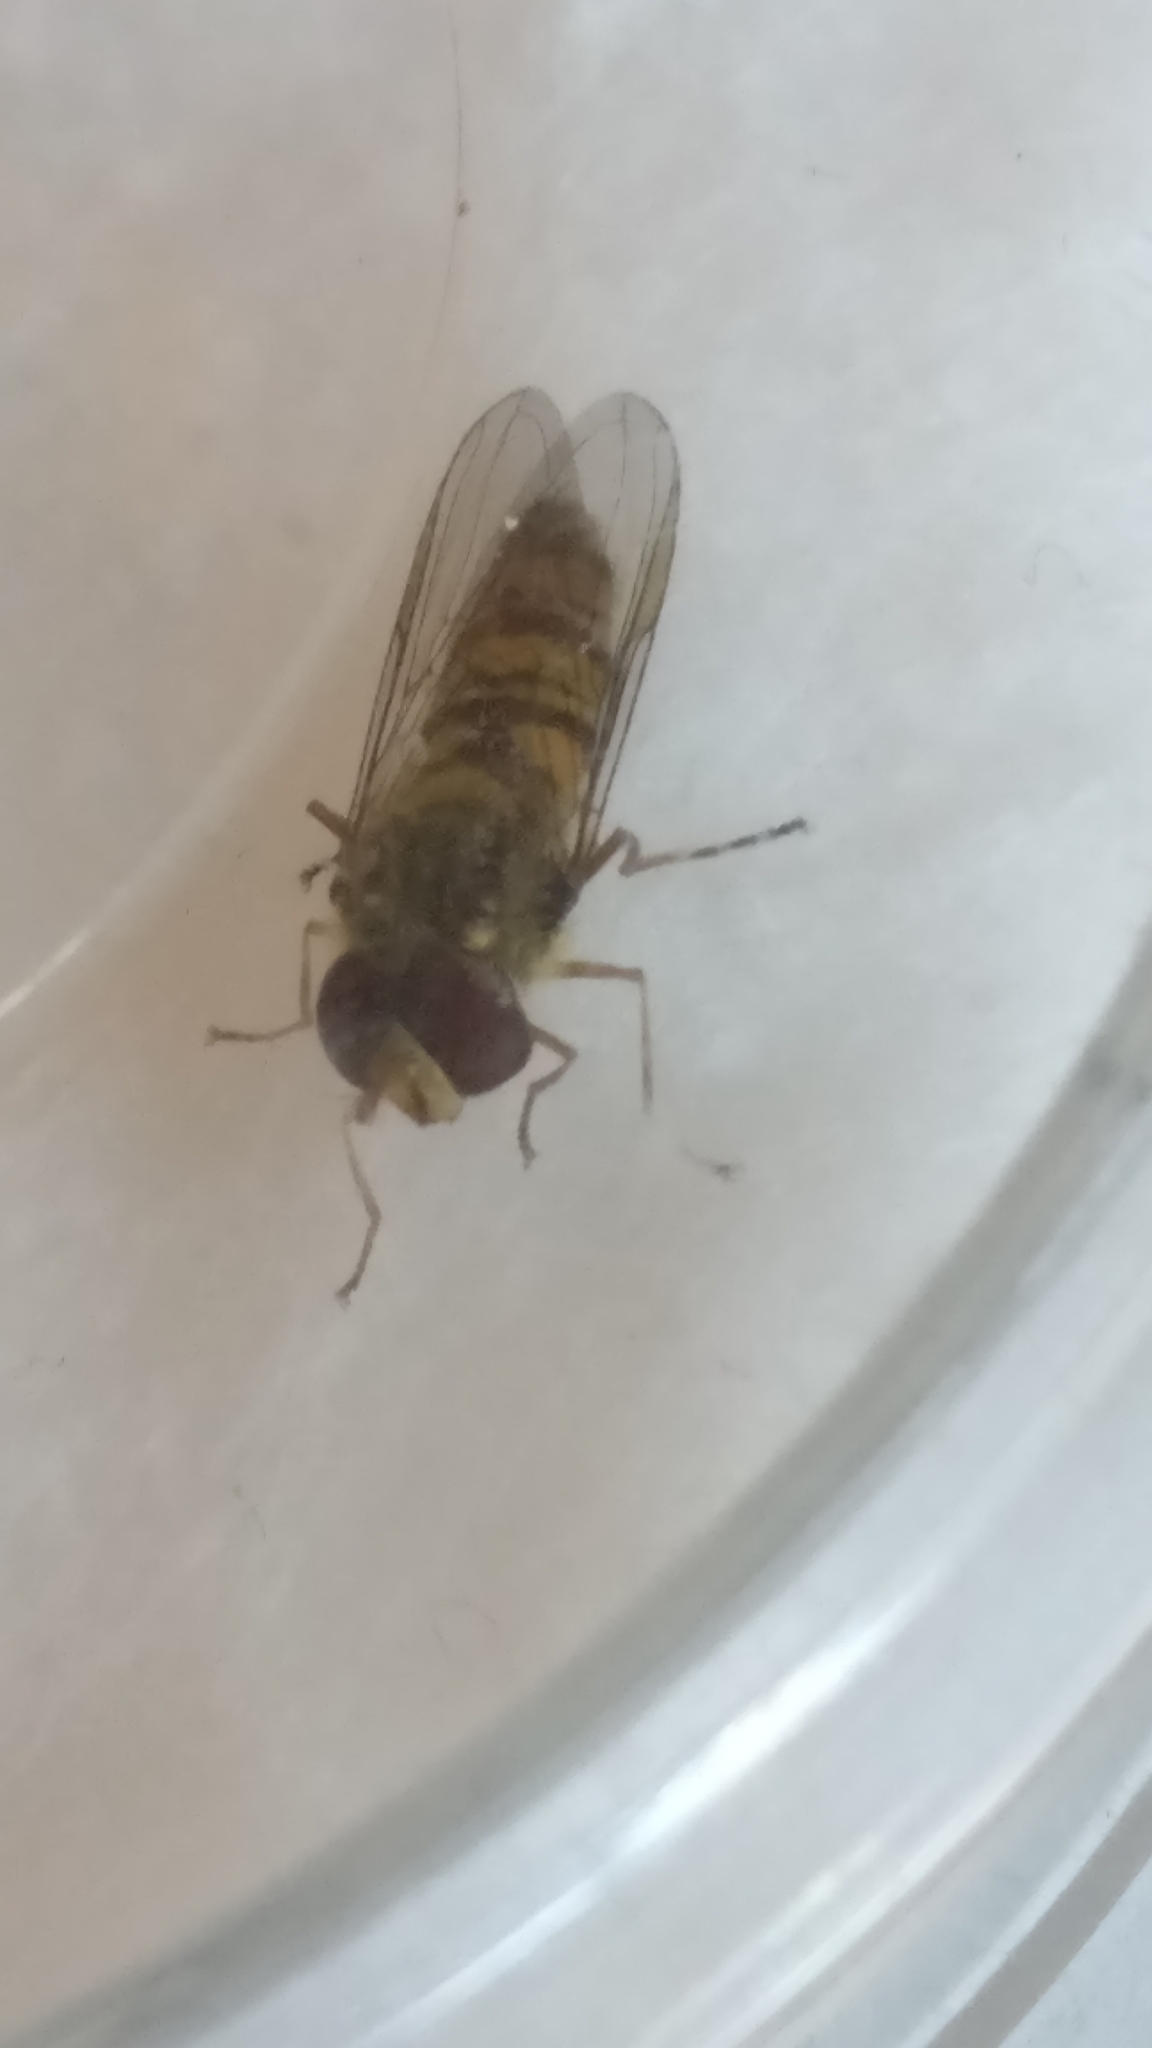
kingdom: Animalia
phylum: Arthropoda
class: Insecta
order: Diptera
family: Syrphidae
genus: Episyrphus
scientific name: Episyrphus balteatus
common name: Marmalade hoverfly
